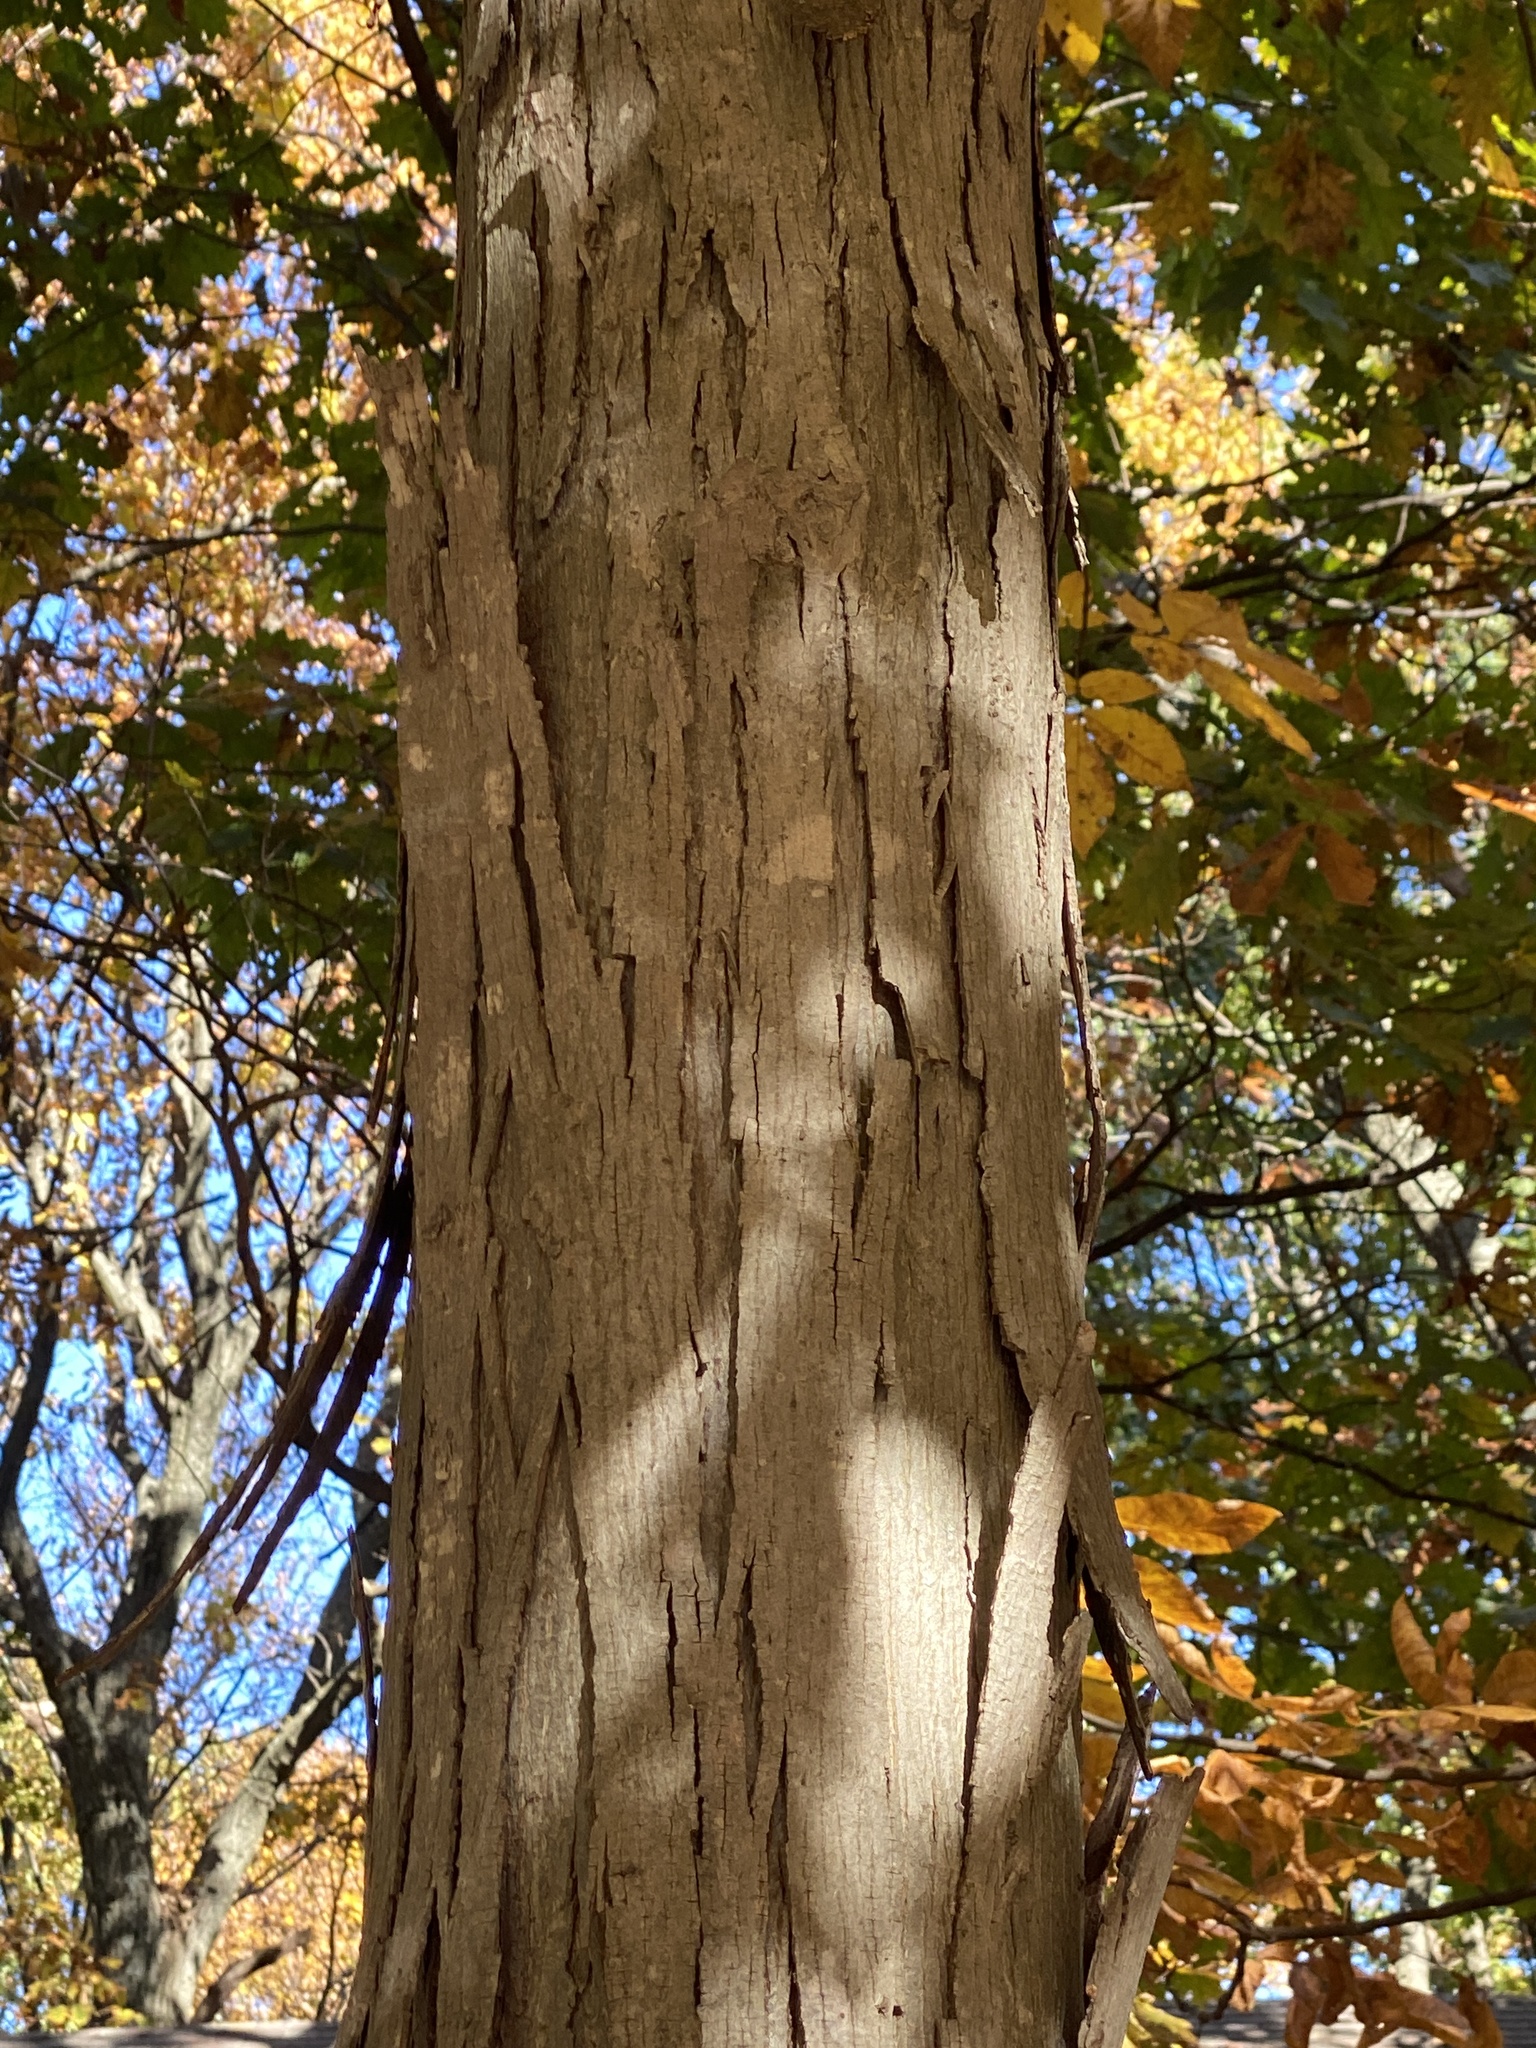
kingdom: Plantae
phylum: Tracheophyta
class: Magnoliopsida
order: Fagales
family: Juglandaceae
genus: Carya
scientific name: Carya ovata
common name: Shagbark hickory
